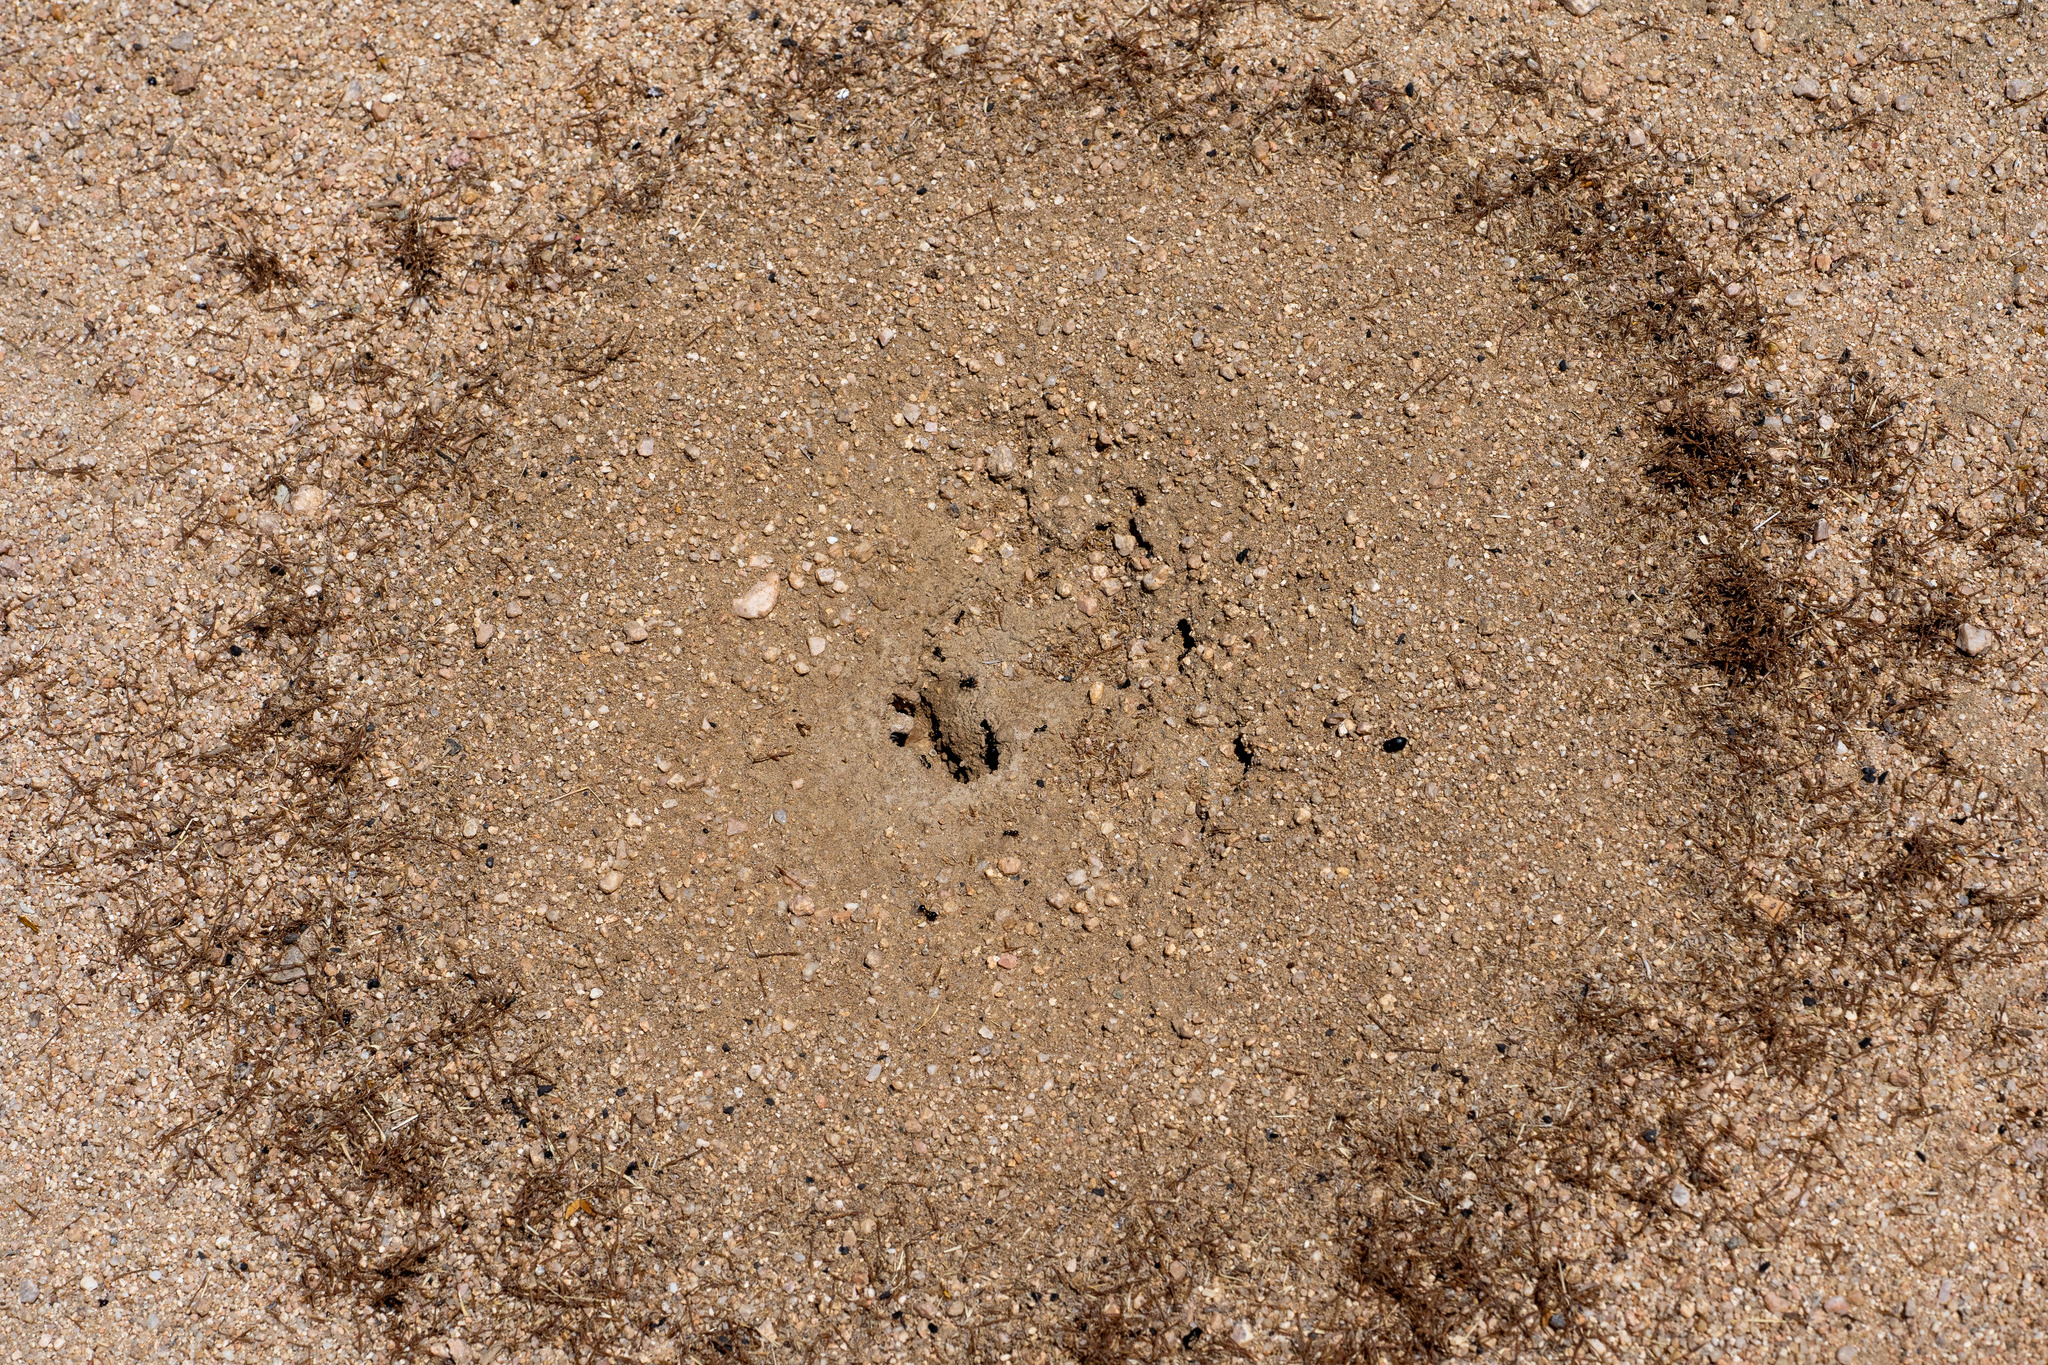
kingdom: Animalia
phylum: Arthropoda
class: Insecta
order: Hymenoptera
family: Formicidae
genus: Messor
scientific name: Messor pergandei
